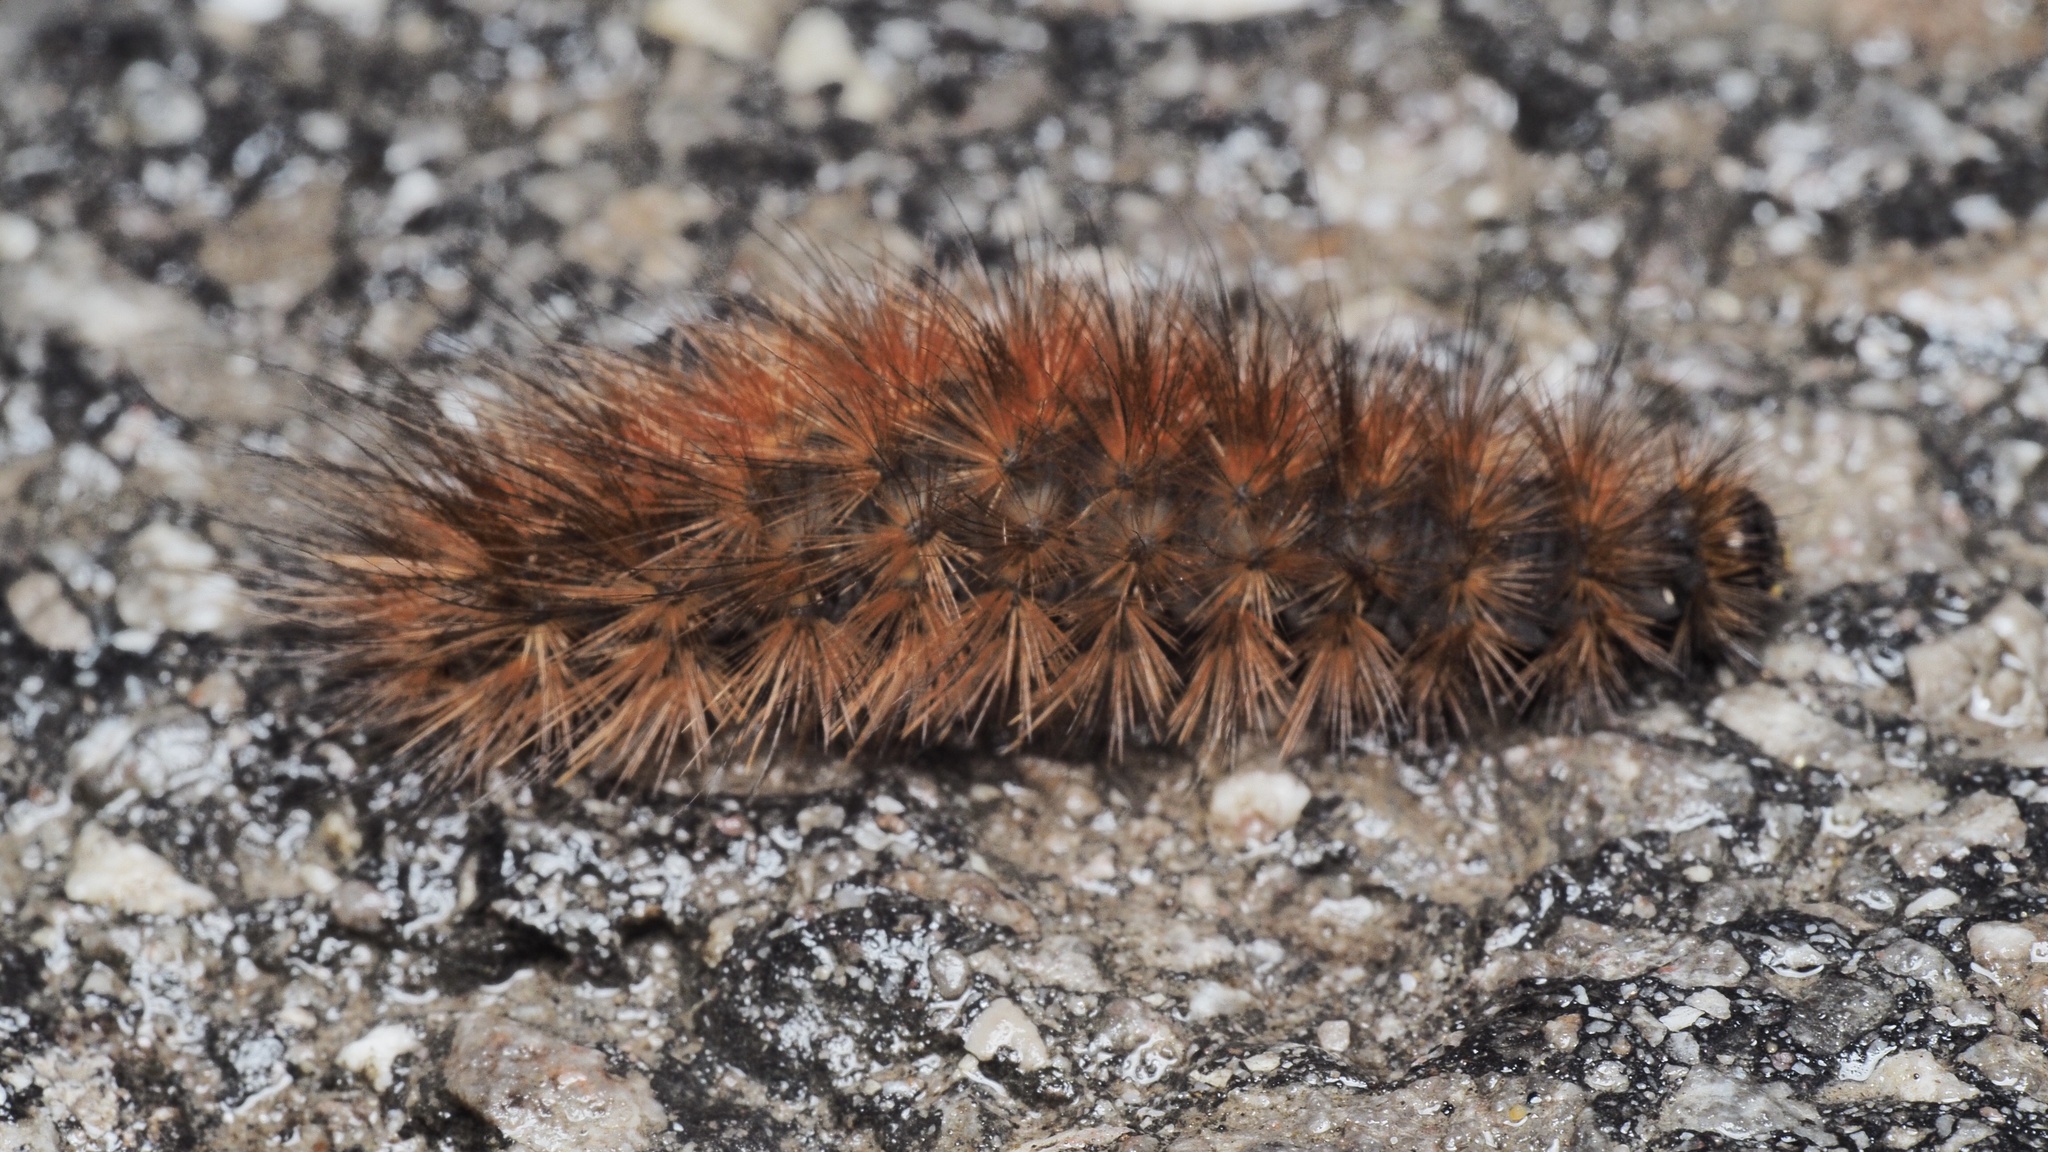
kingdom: Animalia
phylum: Arthropoda
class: Insecta
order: Lepidoptera
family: Erebidae
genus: Phragmatobia
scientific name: Phragmatobia fuliginosa
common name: Ruby tiger
